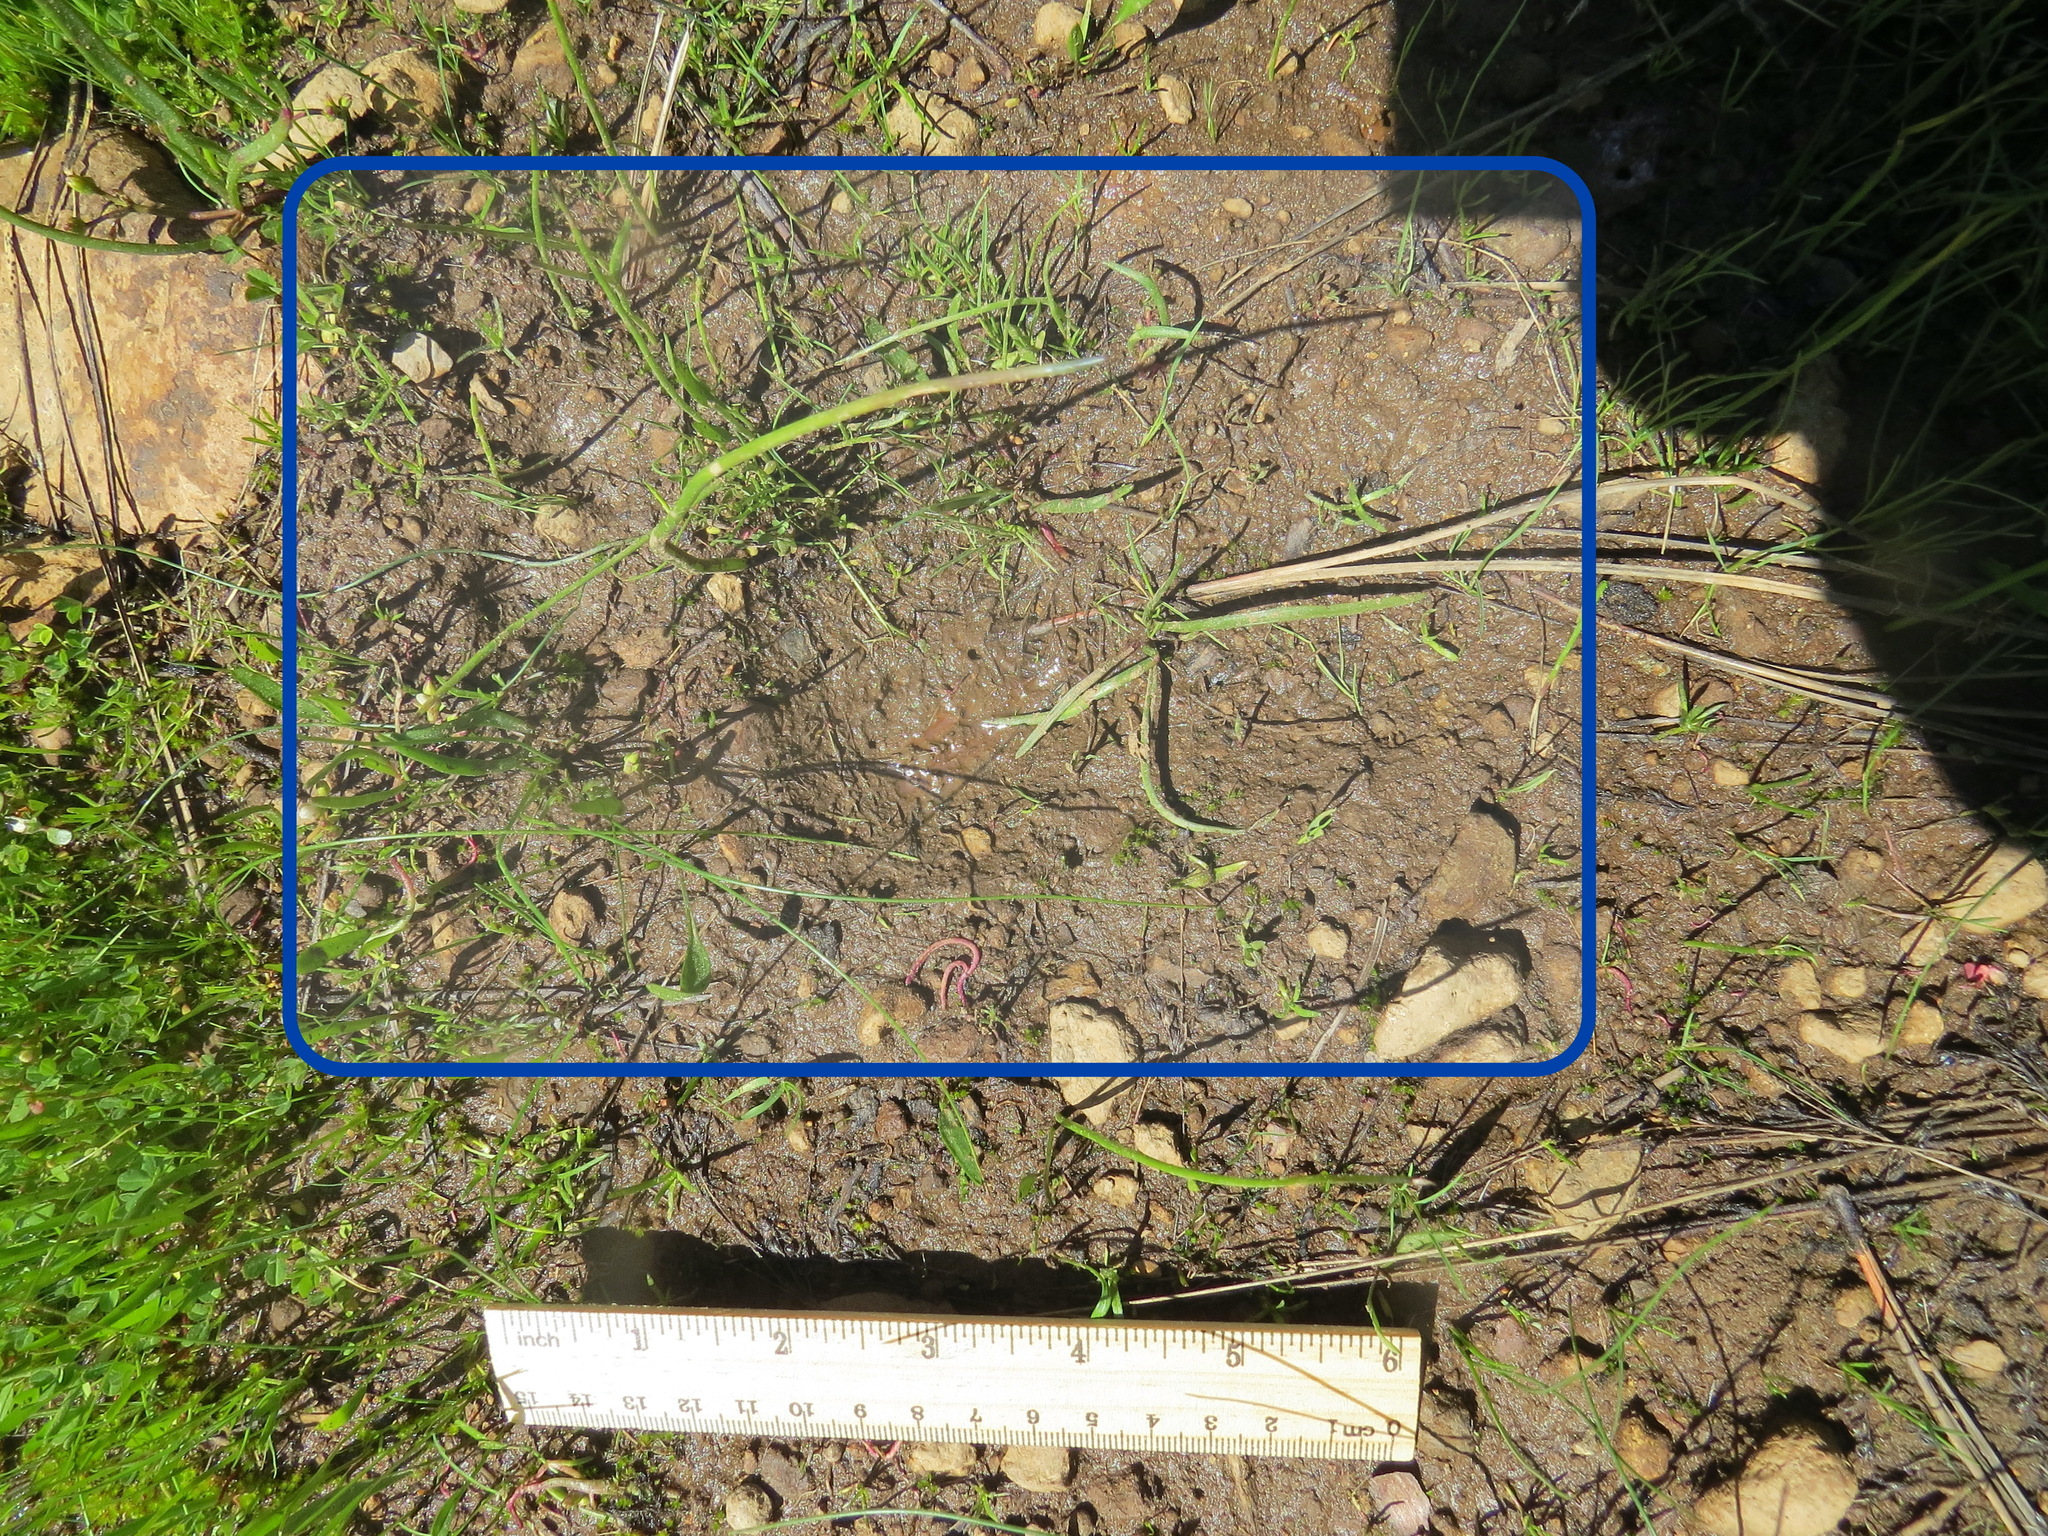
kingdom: Animalia
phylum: Chordata
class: Mammalia
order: Carnivora
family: Ursidae
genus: Ursus
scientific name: Ursus americanus
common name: American black bear
